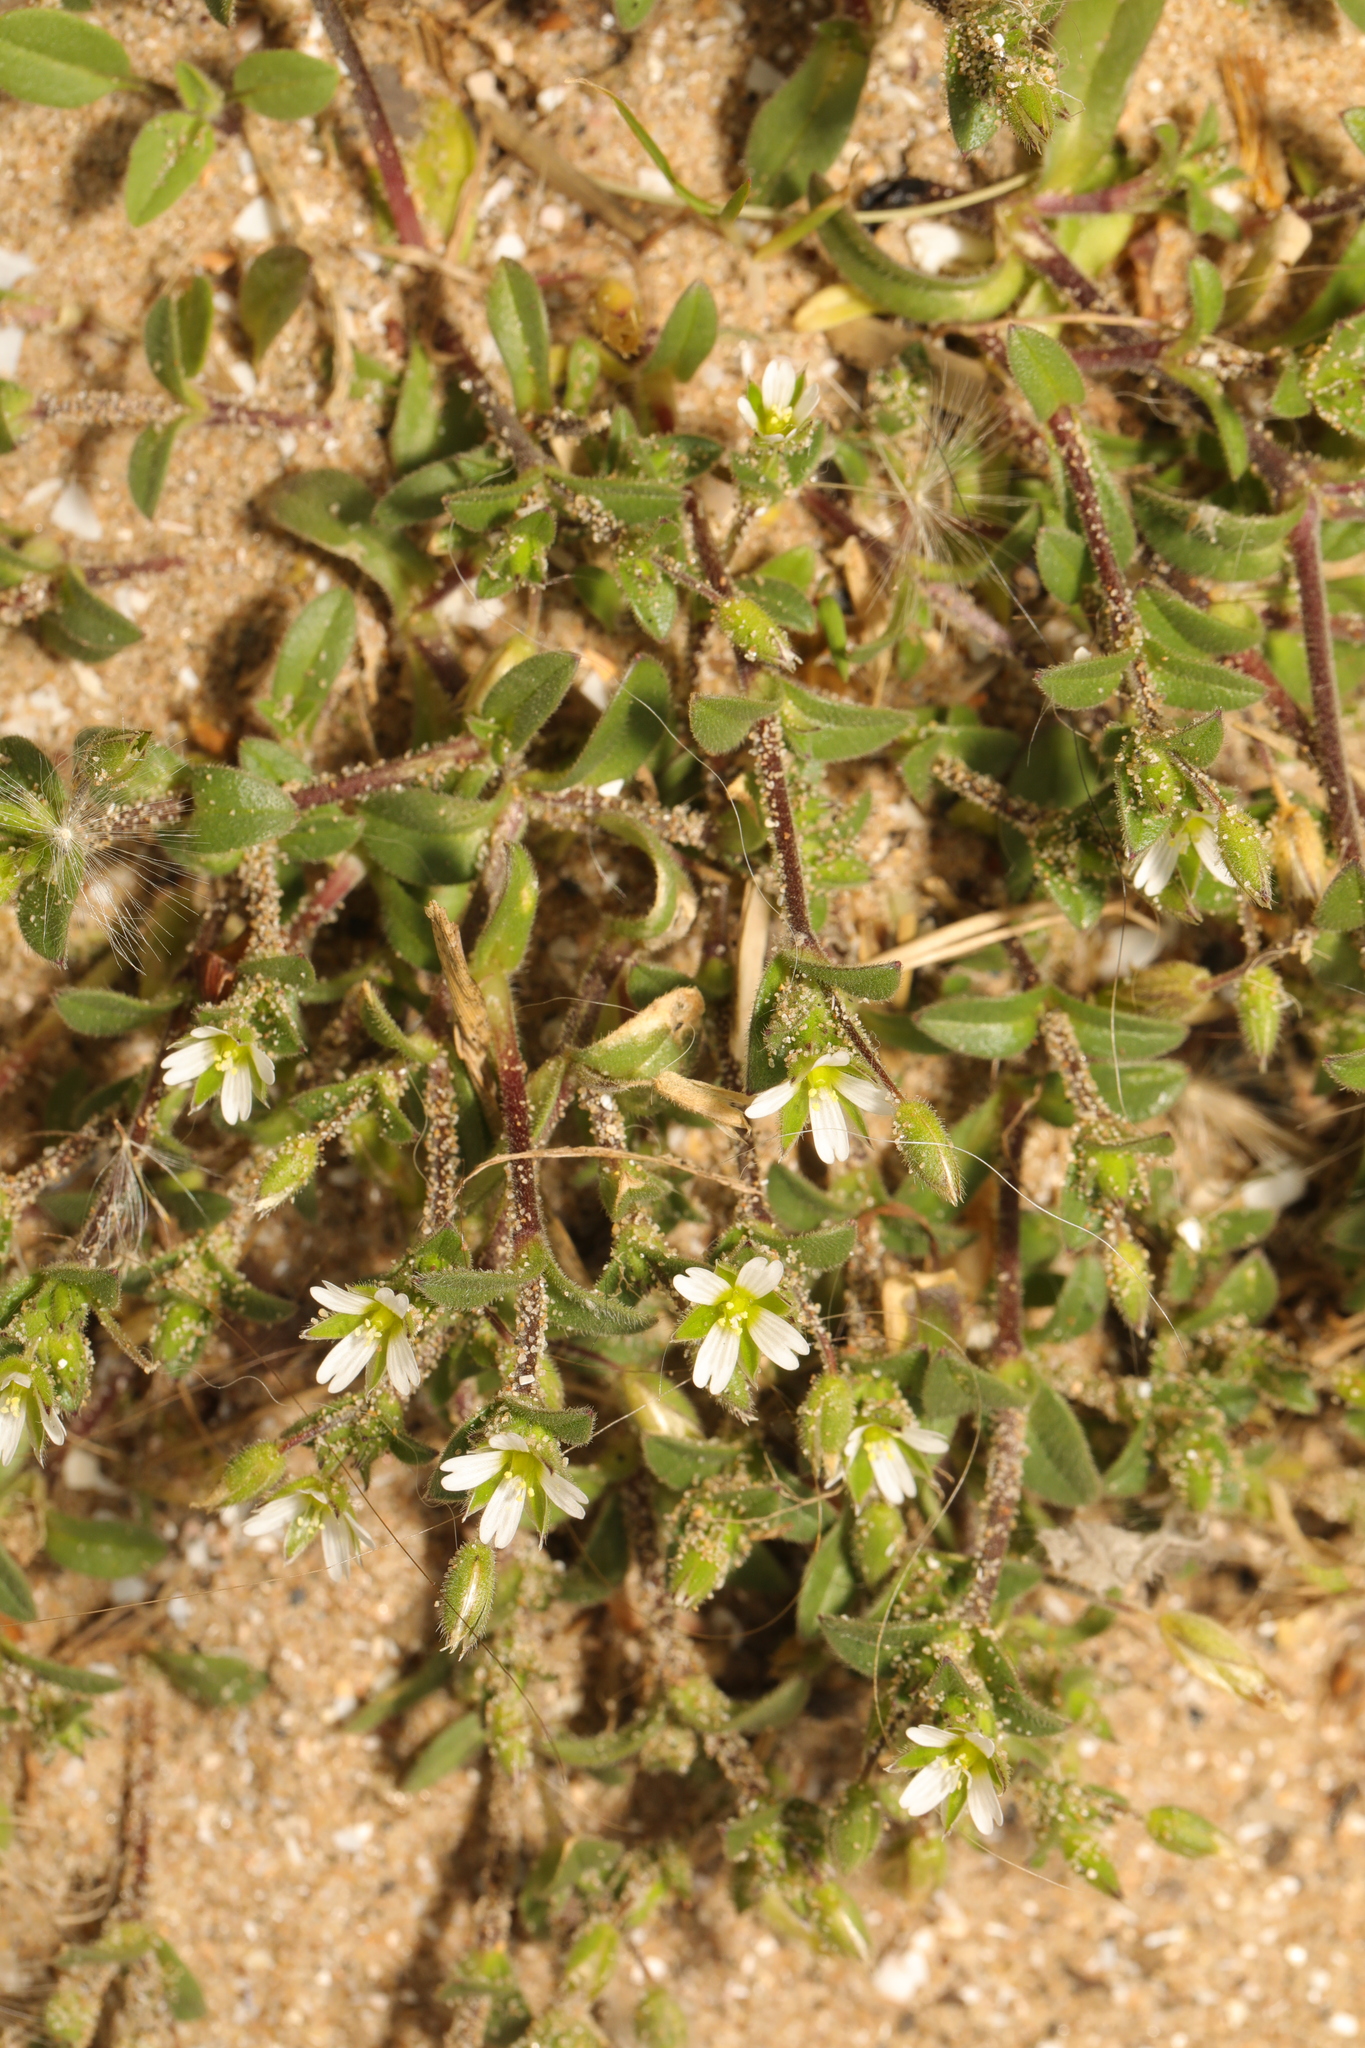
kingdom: Plantae
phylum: Tracheophyta
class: Magnoliopsida
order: Caryophyllales
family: Caryophyllaceae
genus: Cerastium
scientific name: Cerastium diffusum
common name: Fourstamen chickweed
